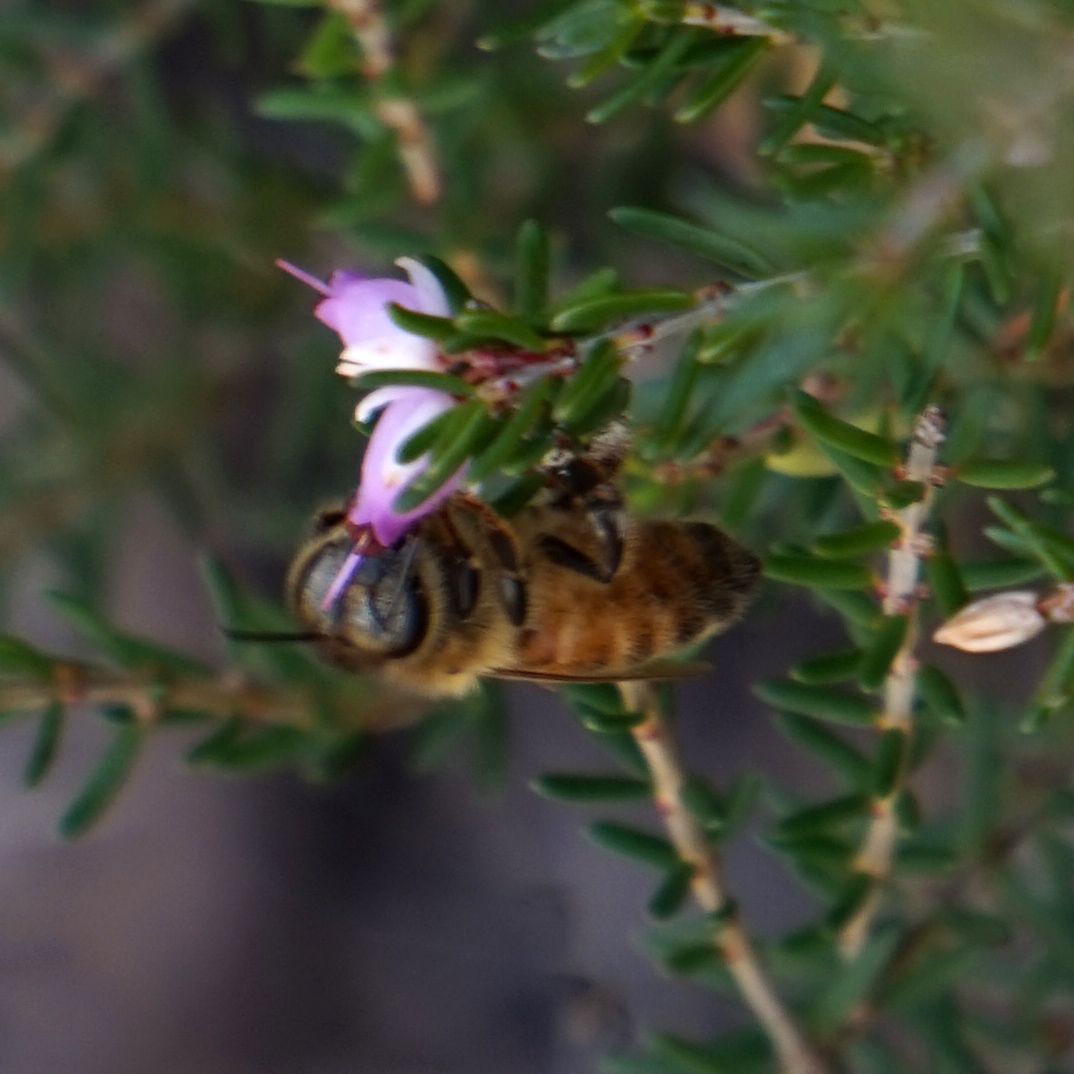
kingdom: Animalia
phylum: Arthropoda
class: Insecta
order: Hymenoptera
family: Apidae
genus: Apis
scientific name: Apis mellifera
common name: Honey bee
